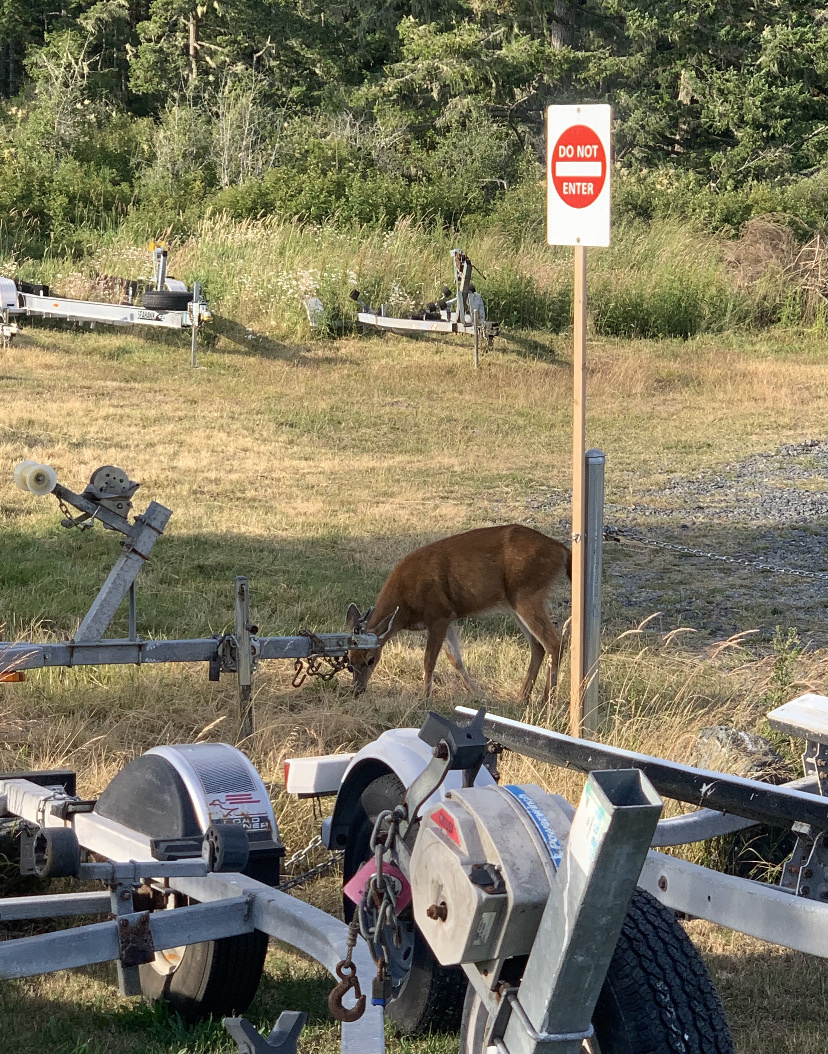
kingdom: Animalia
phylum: Chordata
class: Mammalia
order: Artiodactyla
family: Cervidae
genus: Odocoileus
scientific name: Odocoileus hemionus
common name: Mule deer
